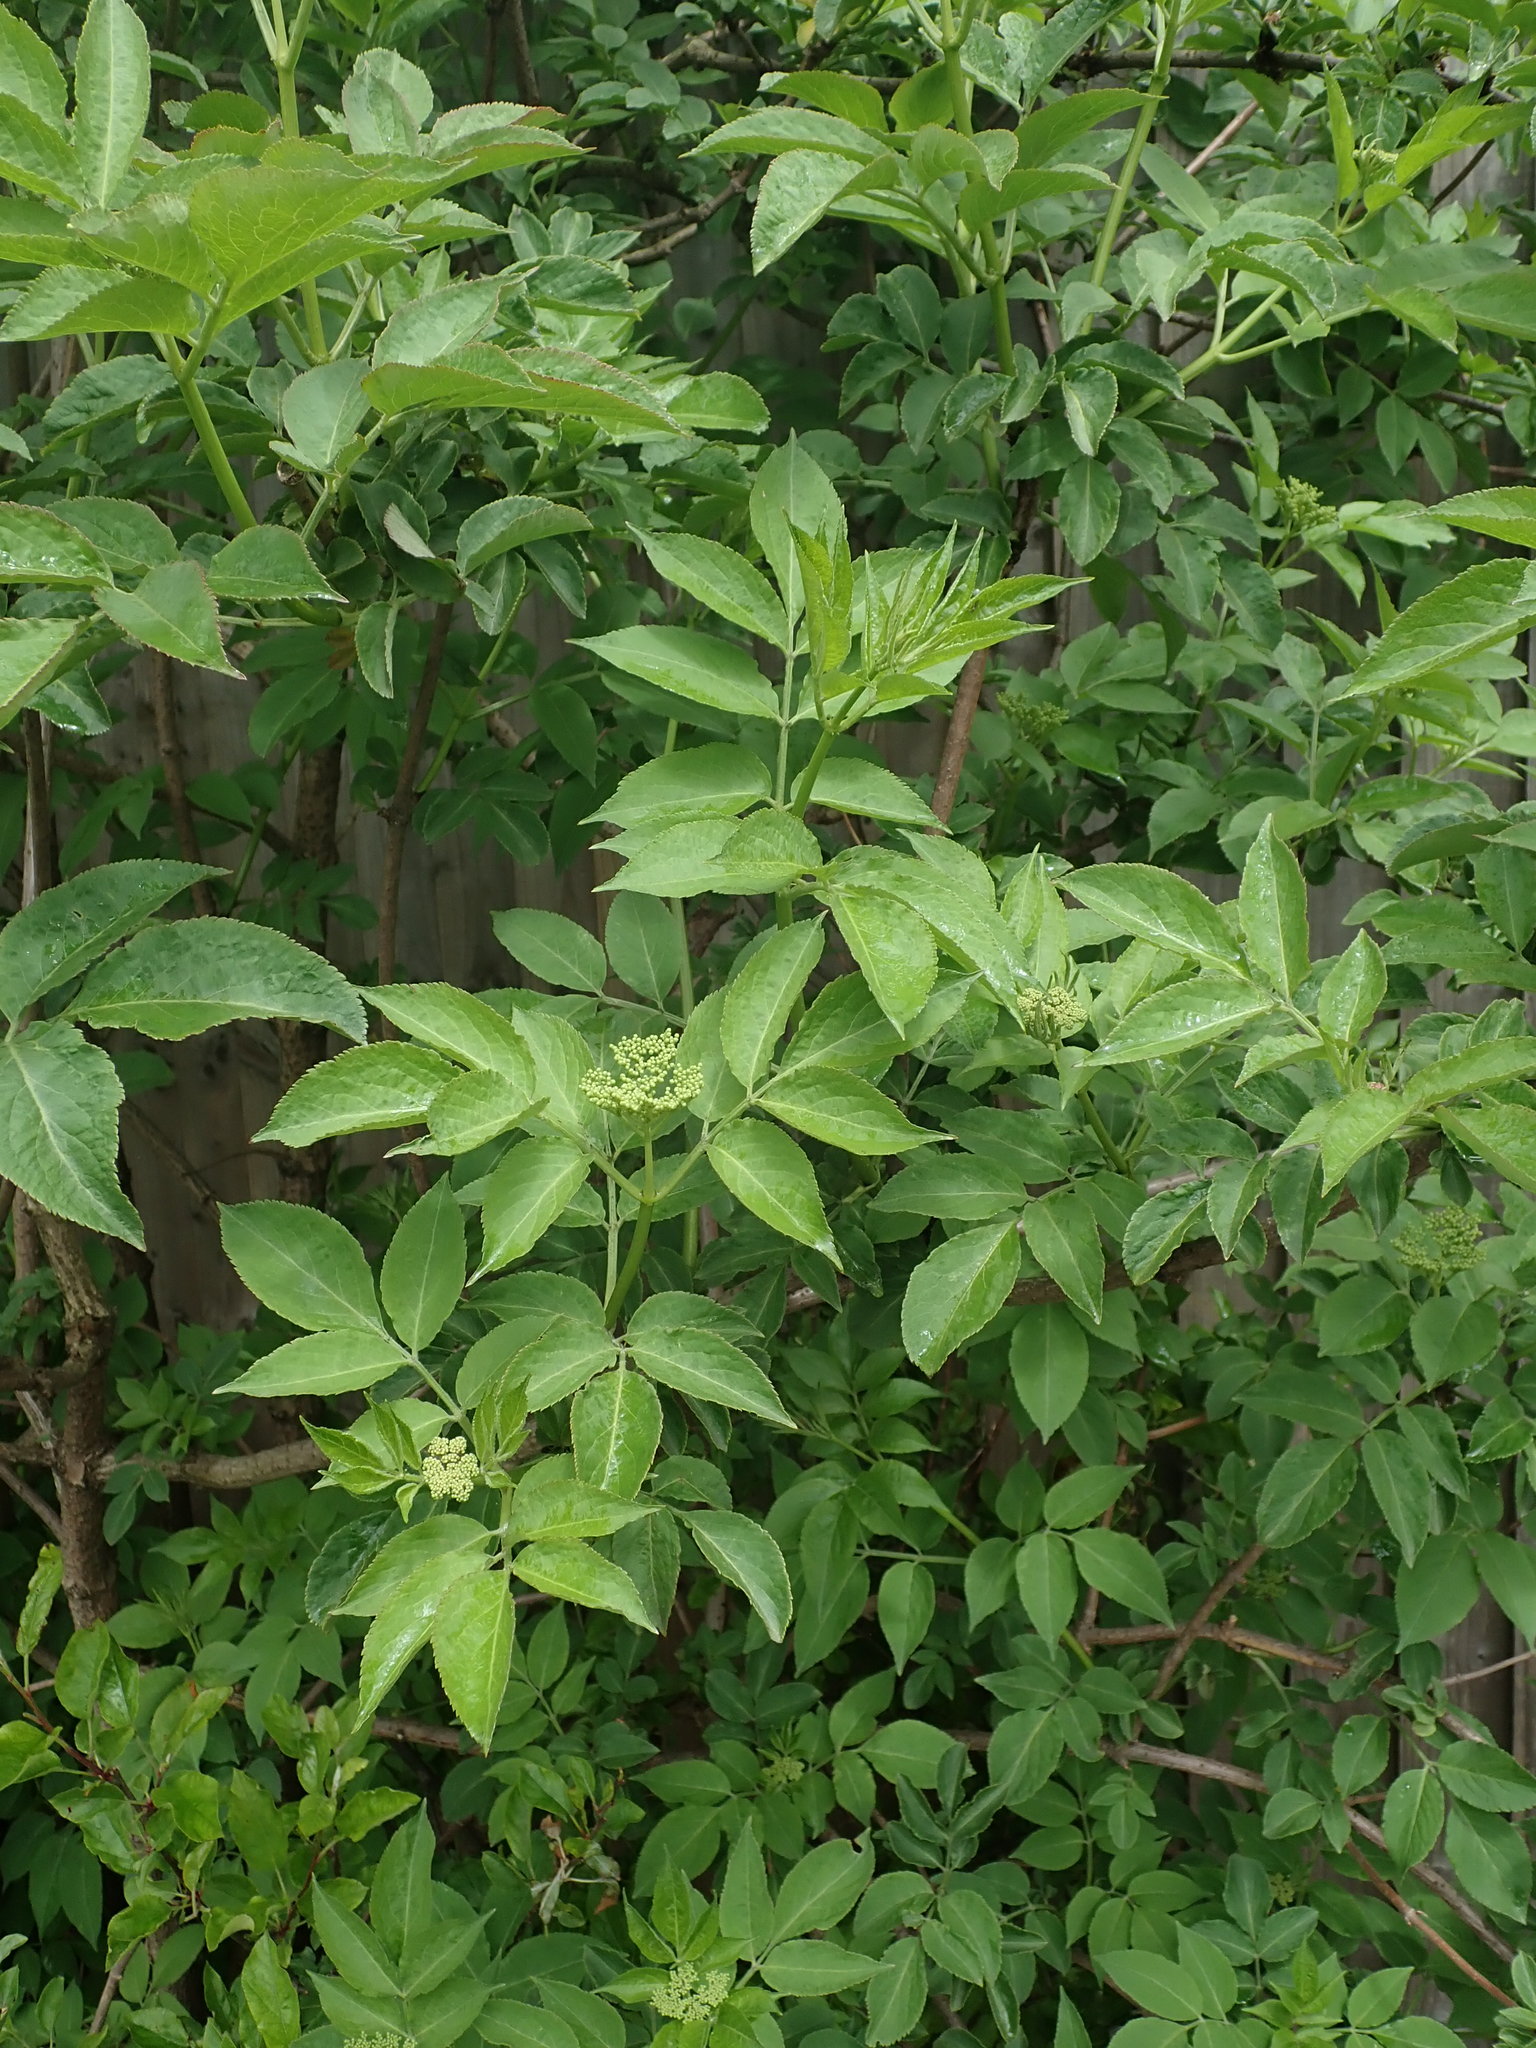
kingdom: Plantae
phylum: Tracheophyta
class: Magnoliopsida
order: Dipsacales
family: Viburnaceae
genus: Sambucus
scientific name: Sambucus nigra
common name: Elder
